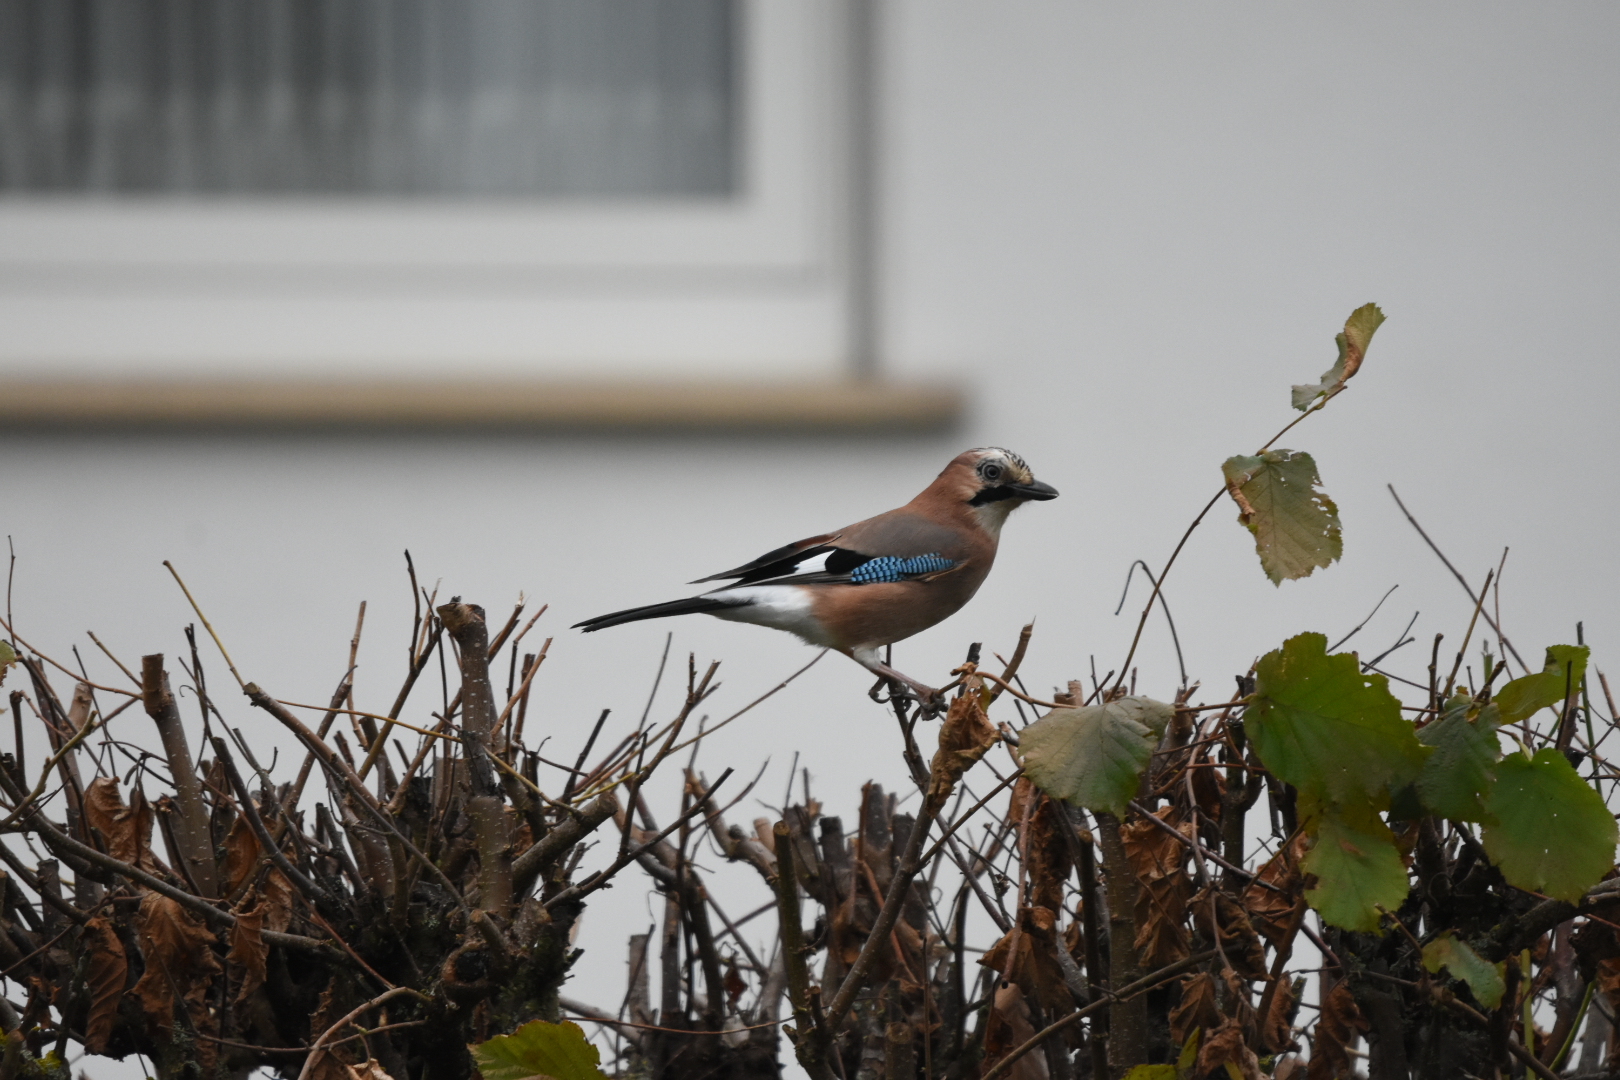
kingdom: Animalia
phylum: Chordata
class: Aves
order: Passeriformes
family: Corvidae
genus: Garrulus
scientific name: Garrulus glandarius
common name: Eurasian jay
